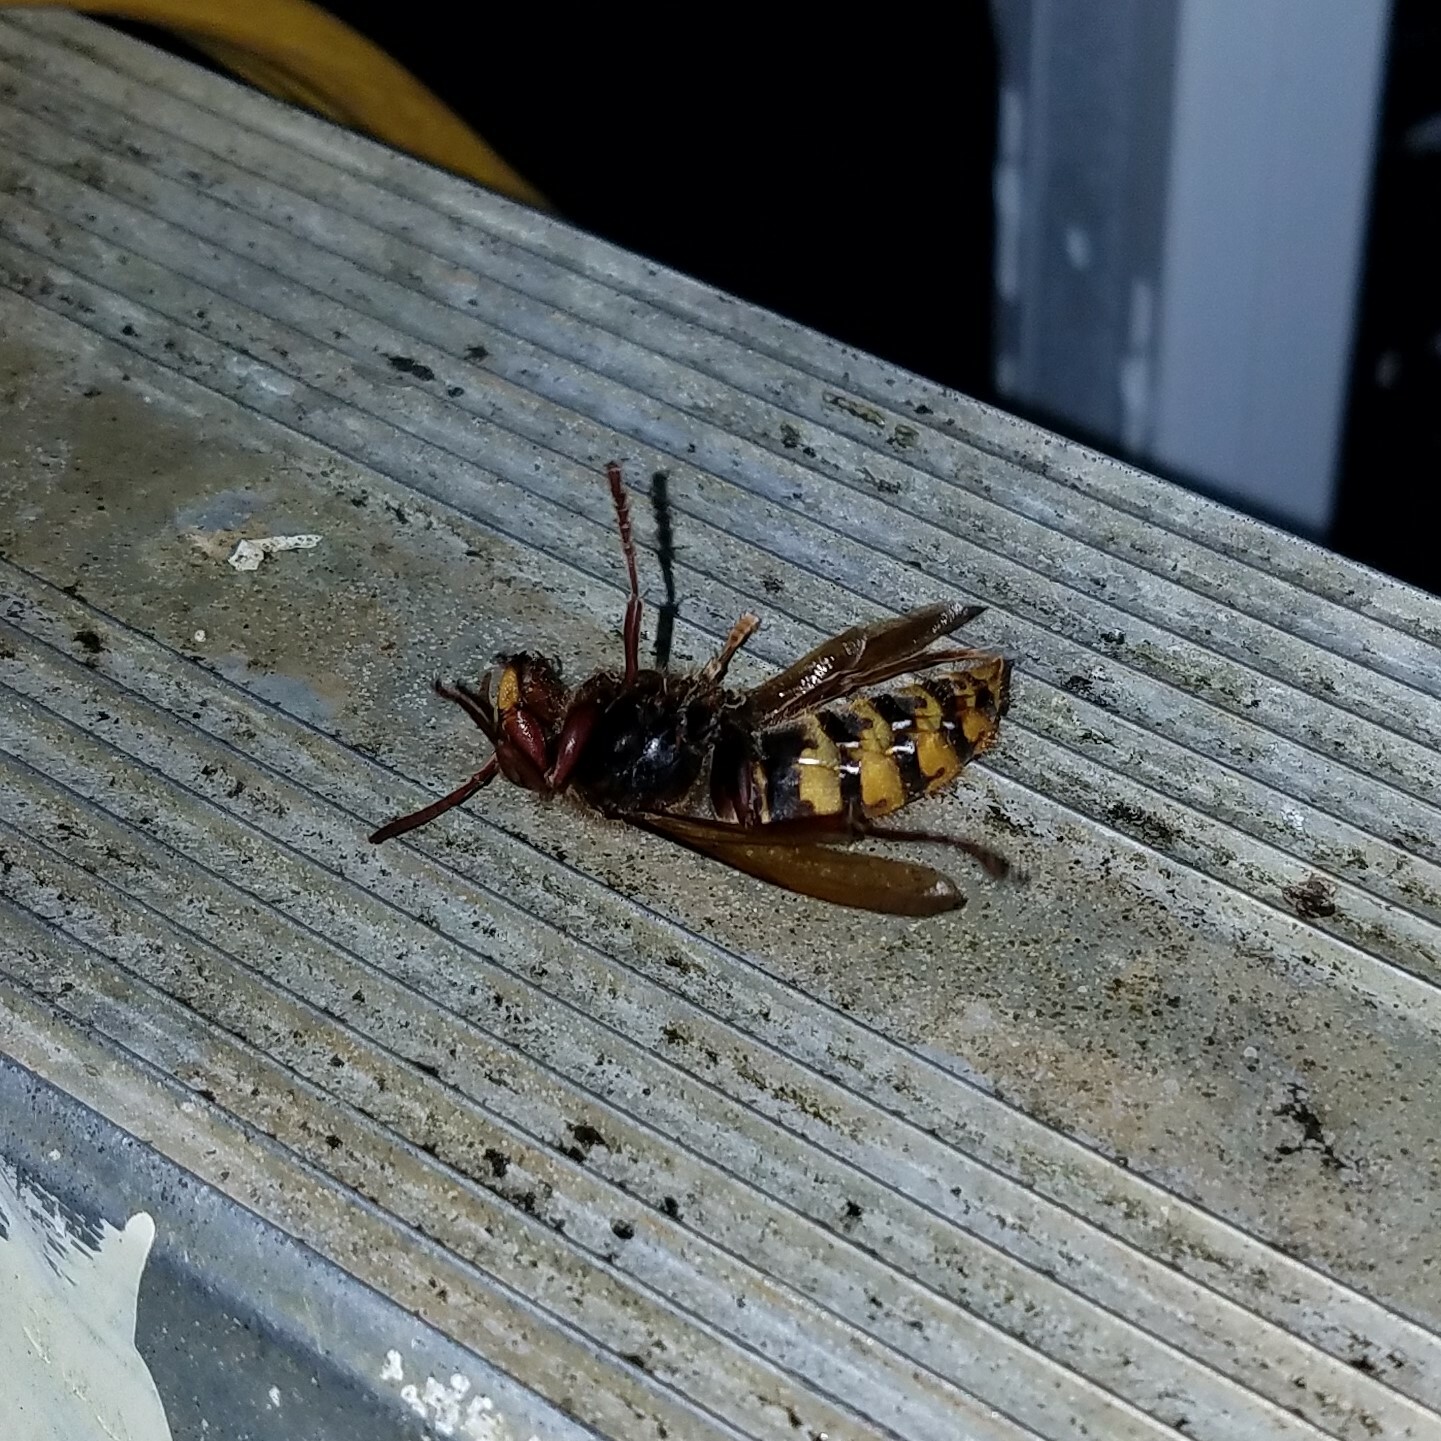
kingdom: Animalia
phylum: Arthropoda
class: Insecta
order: Hymenoptera
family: Vespidae
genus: Vespa
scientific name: Vespa crabro
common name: Hornet
